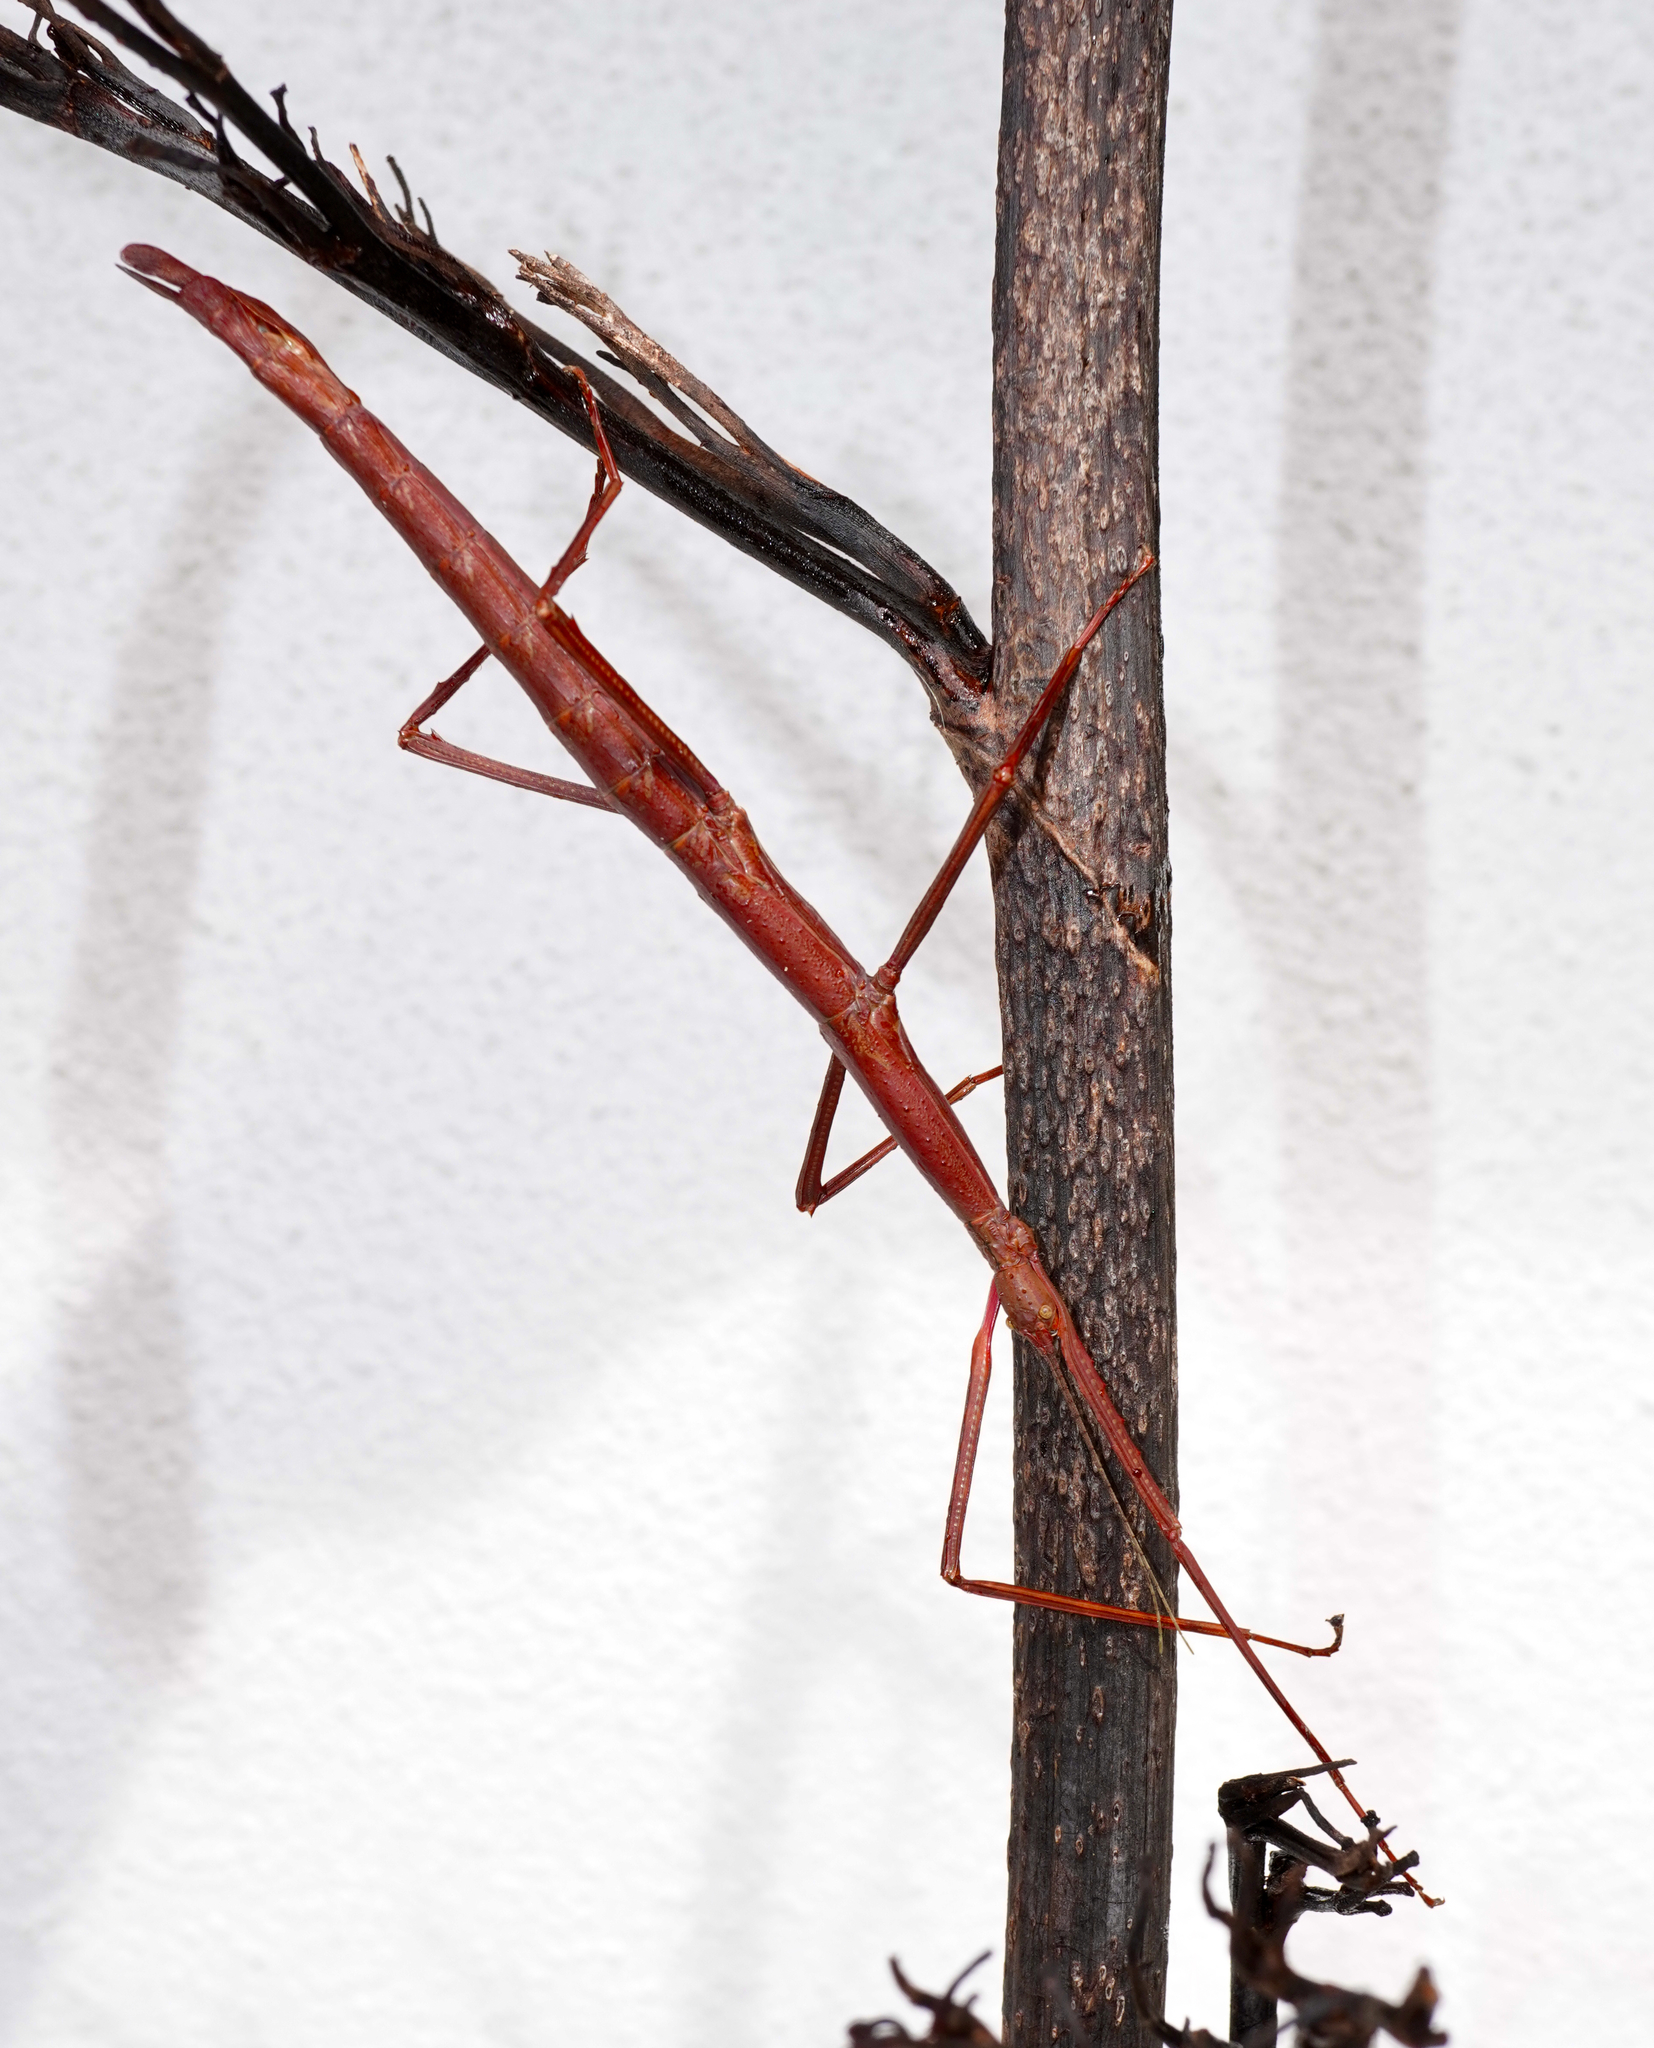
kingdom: Animalia
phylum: Arthropoda
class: Insecta
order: Phasmida
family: Phasmatidae
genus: Acanthoxyla
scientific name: Acanthoxyla inermis
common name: Unarmed stick insect
